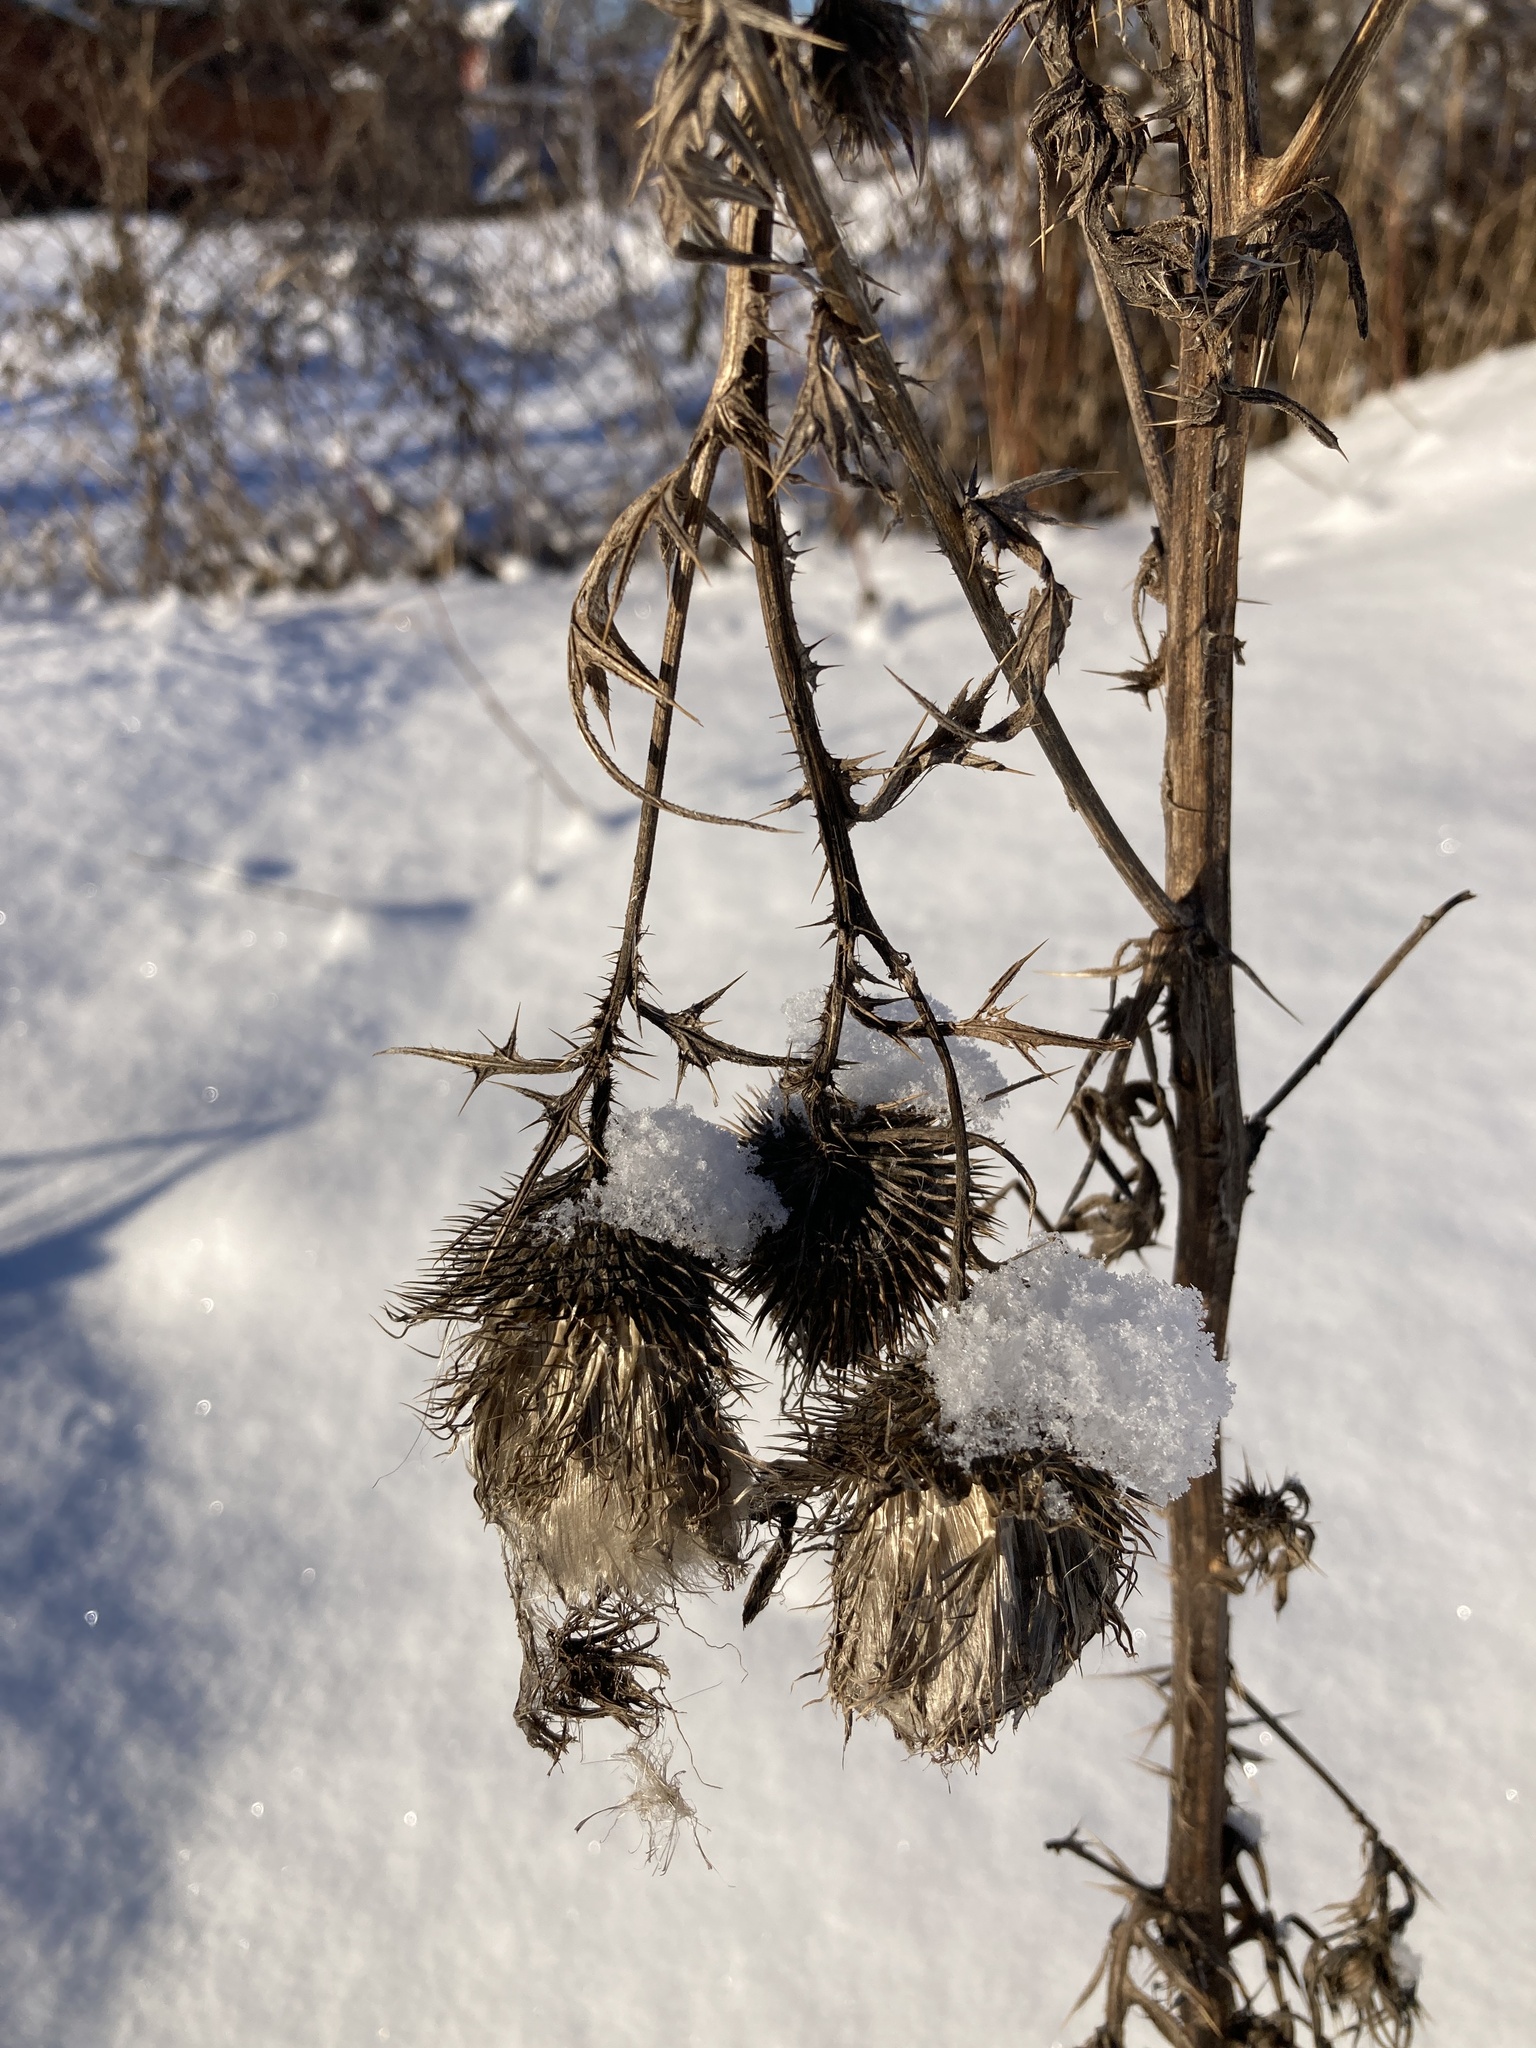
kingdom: Plantae
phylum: Tracheophyta
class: Magnoliopsida
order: Asterales
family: Asteraceae
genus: Cirsium
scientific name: Cirsium vulgare
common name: Bull thistle
